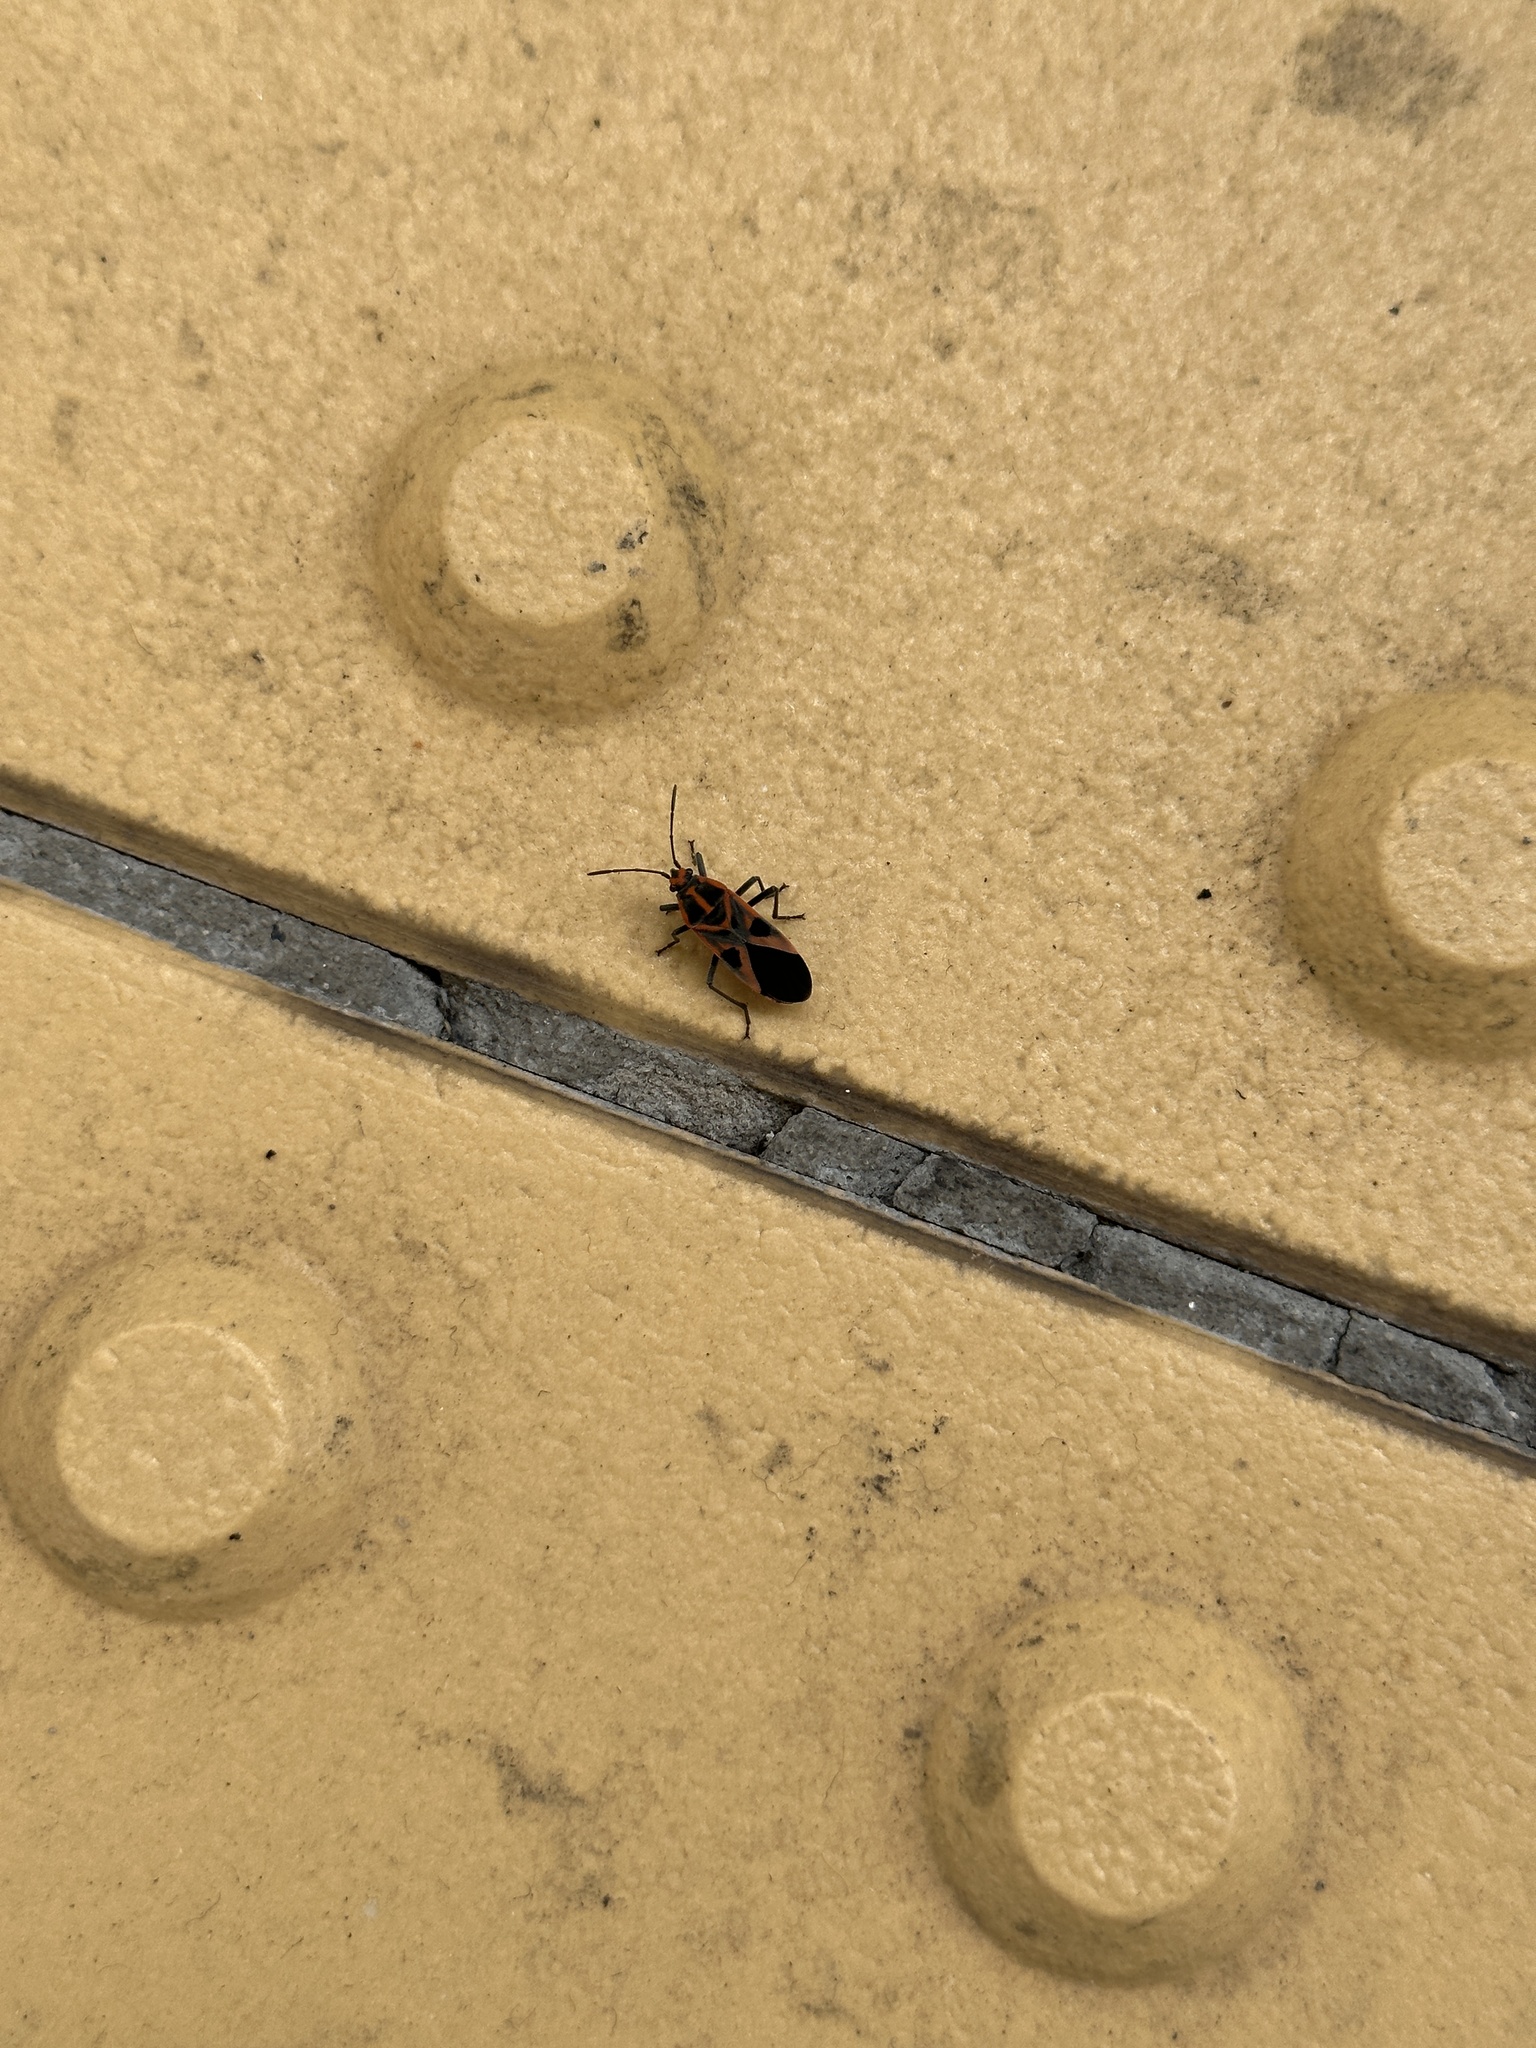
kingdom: Animalia
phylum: Arthropoda
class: Insecta
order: Hemiptera
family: Lygaeidae
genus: Spilostethus
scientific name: Spilostethus hospes
